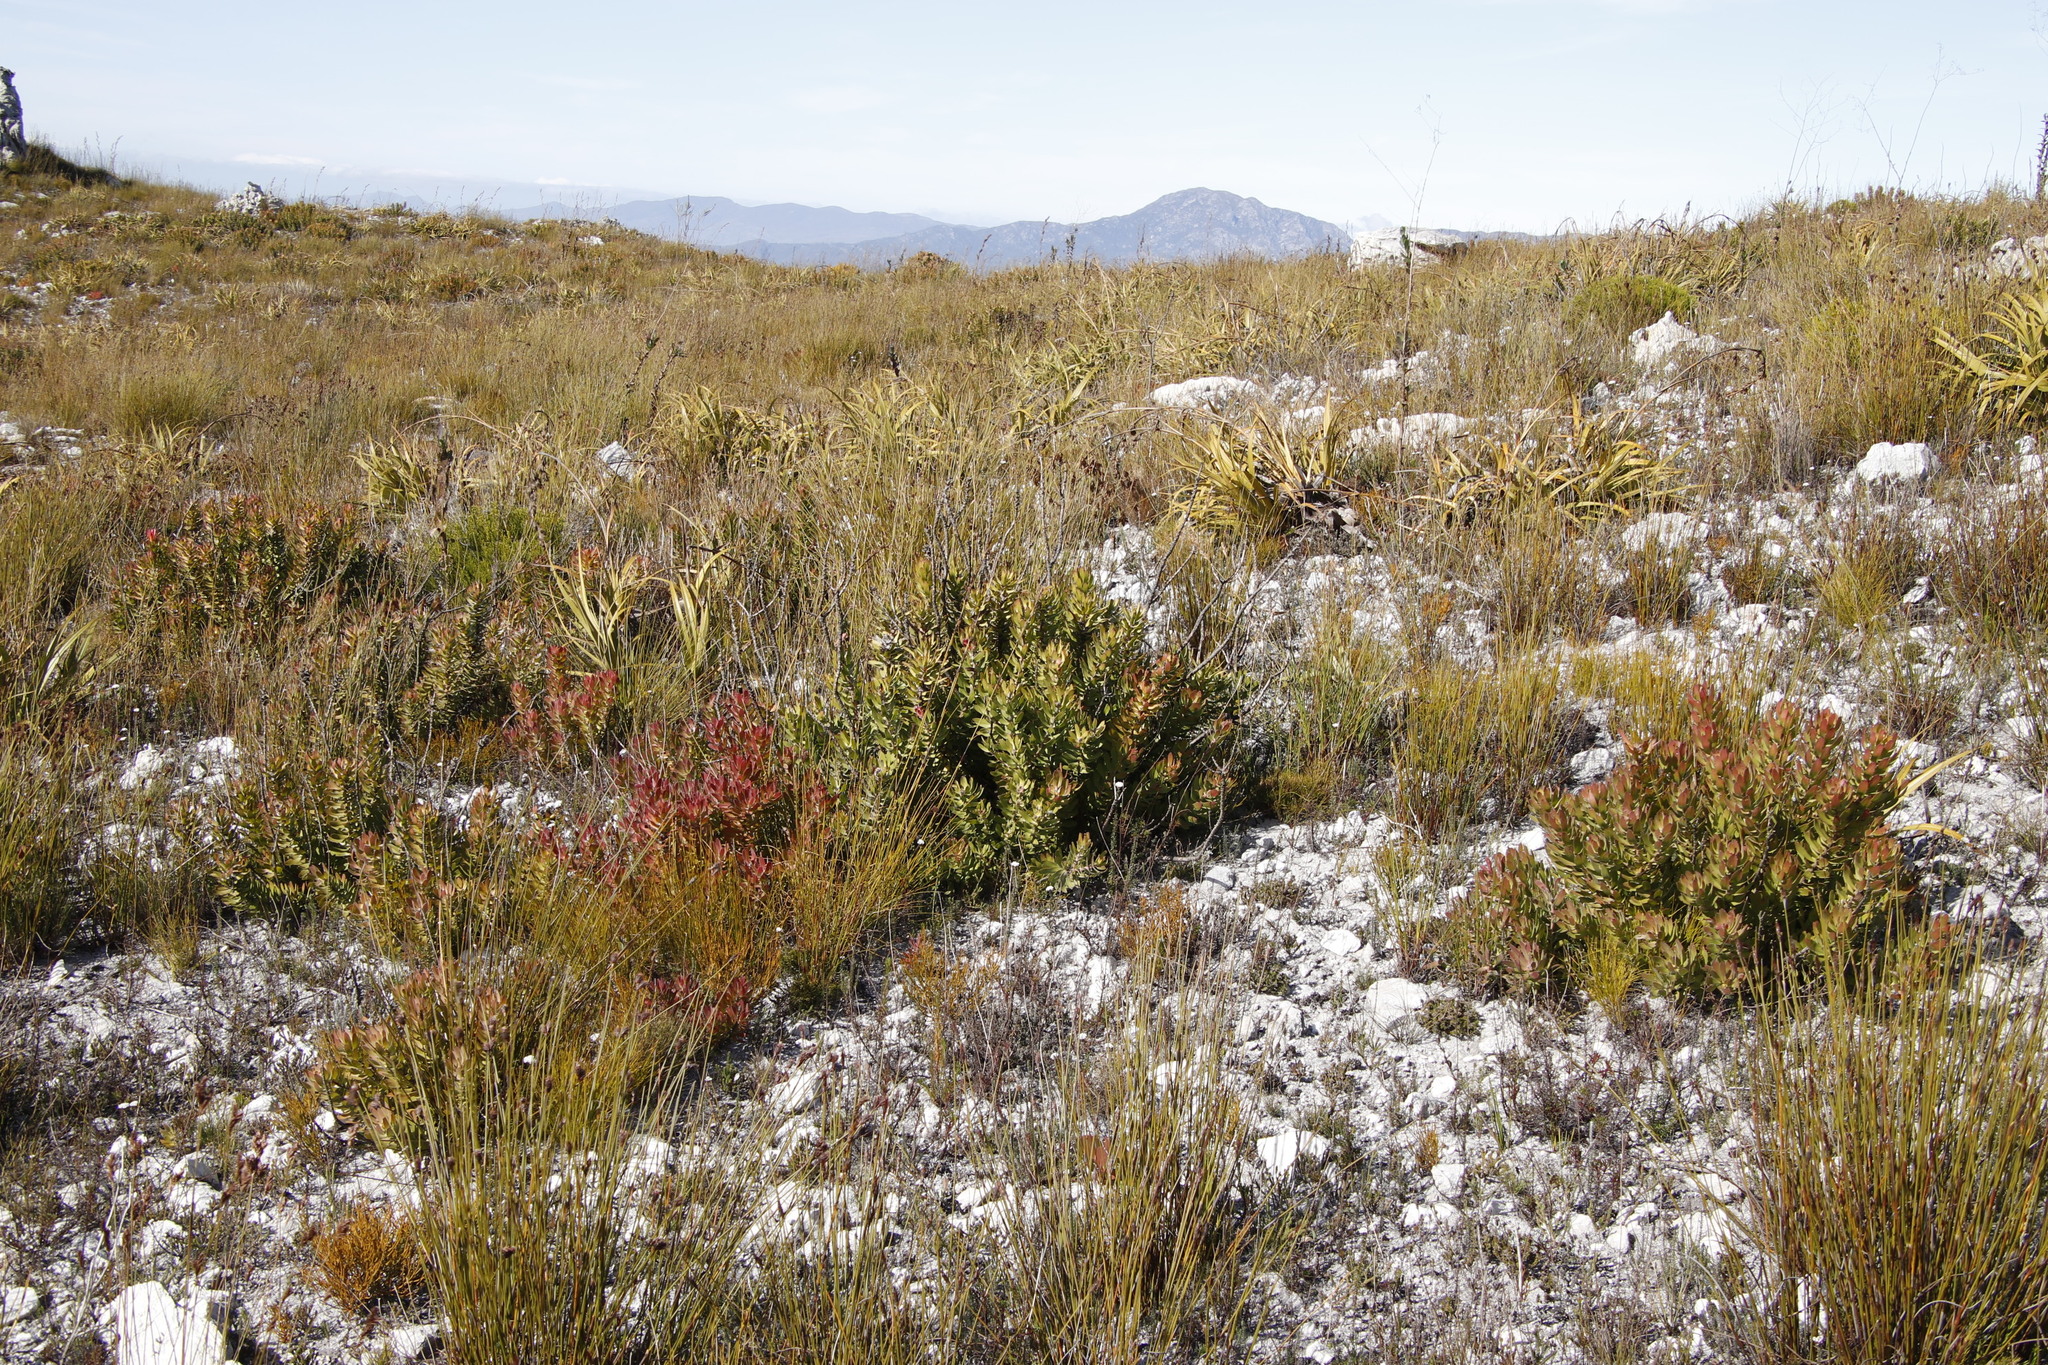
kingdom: Plantae
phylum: Tracheophyta
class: Magnoliopsida
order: Proteales
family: Proteaceae
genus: Mimetes
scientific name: Mimetes cucullatus
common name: Common pagoda
